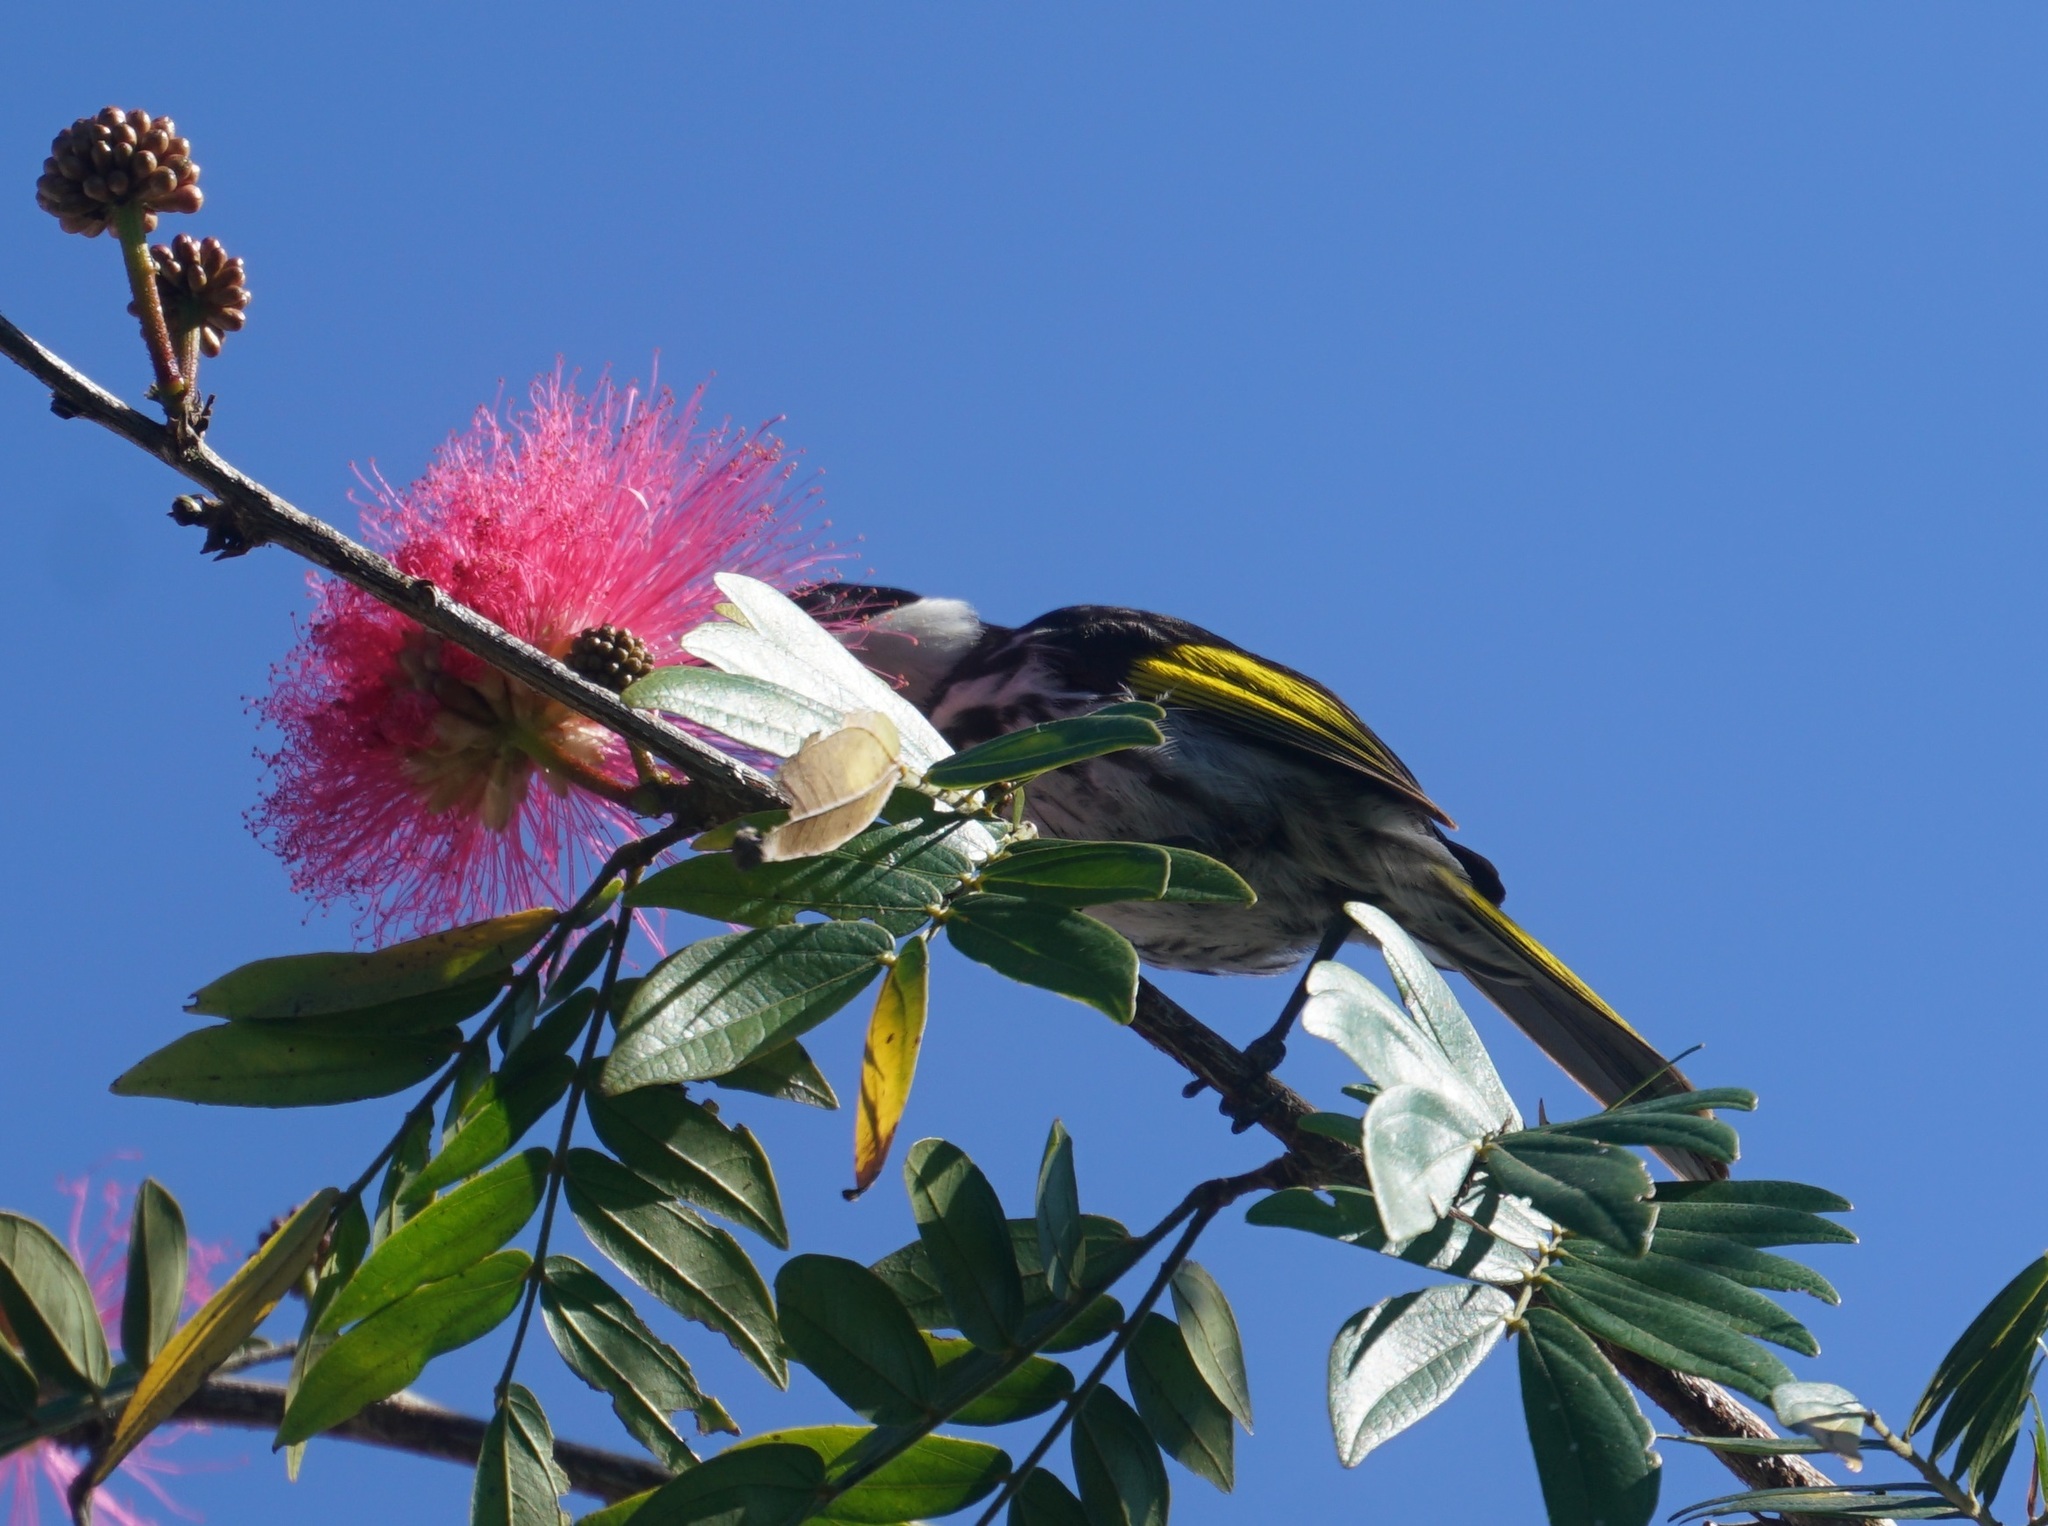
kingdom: Animalia
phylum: Chordata
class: Aves
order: Passeriformes
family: Meliphagidae
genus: Phylidonyris
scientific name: Phylidonyris niger
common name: White-cheeked honeyeater
